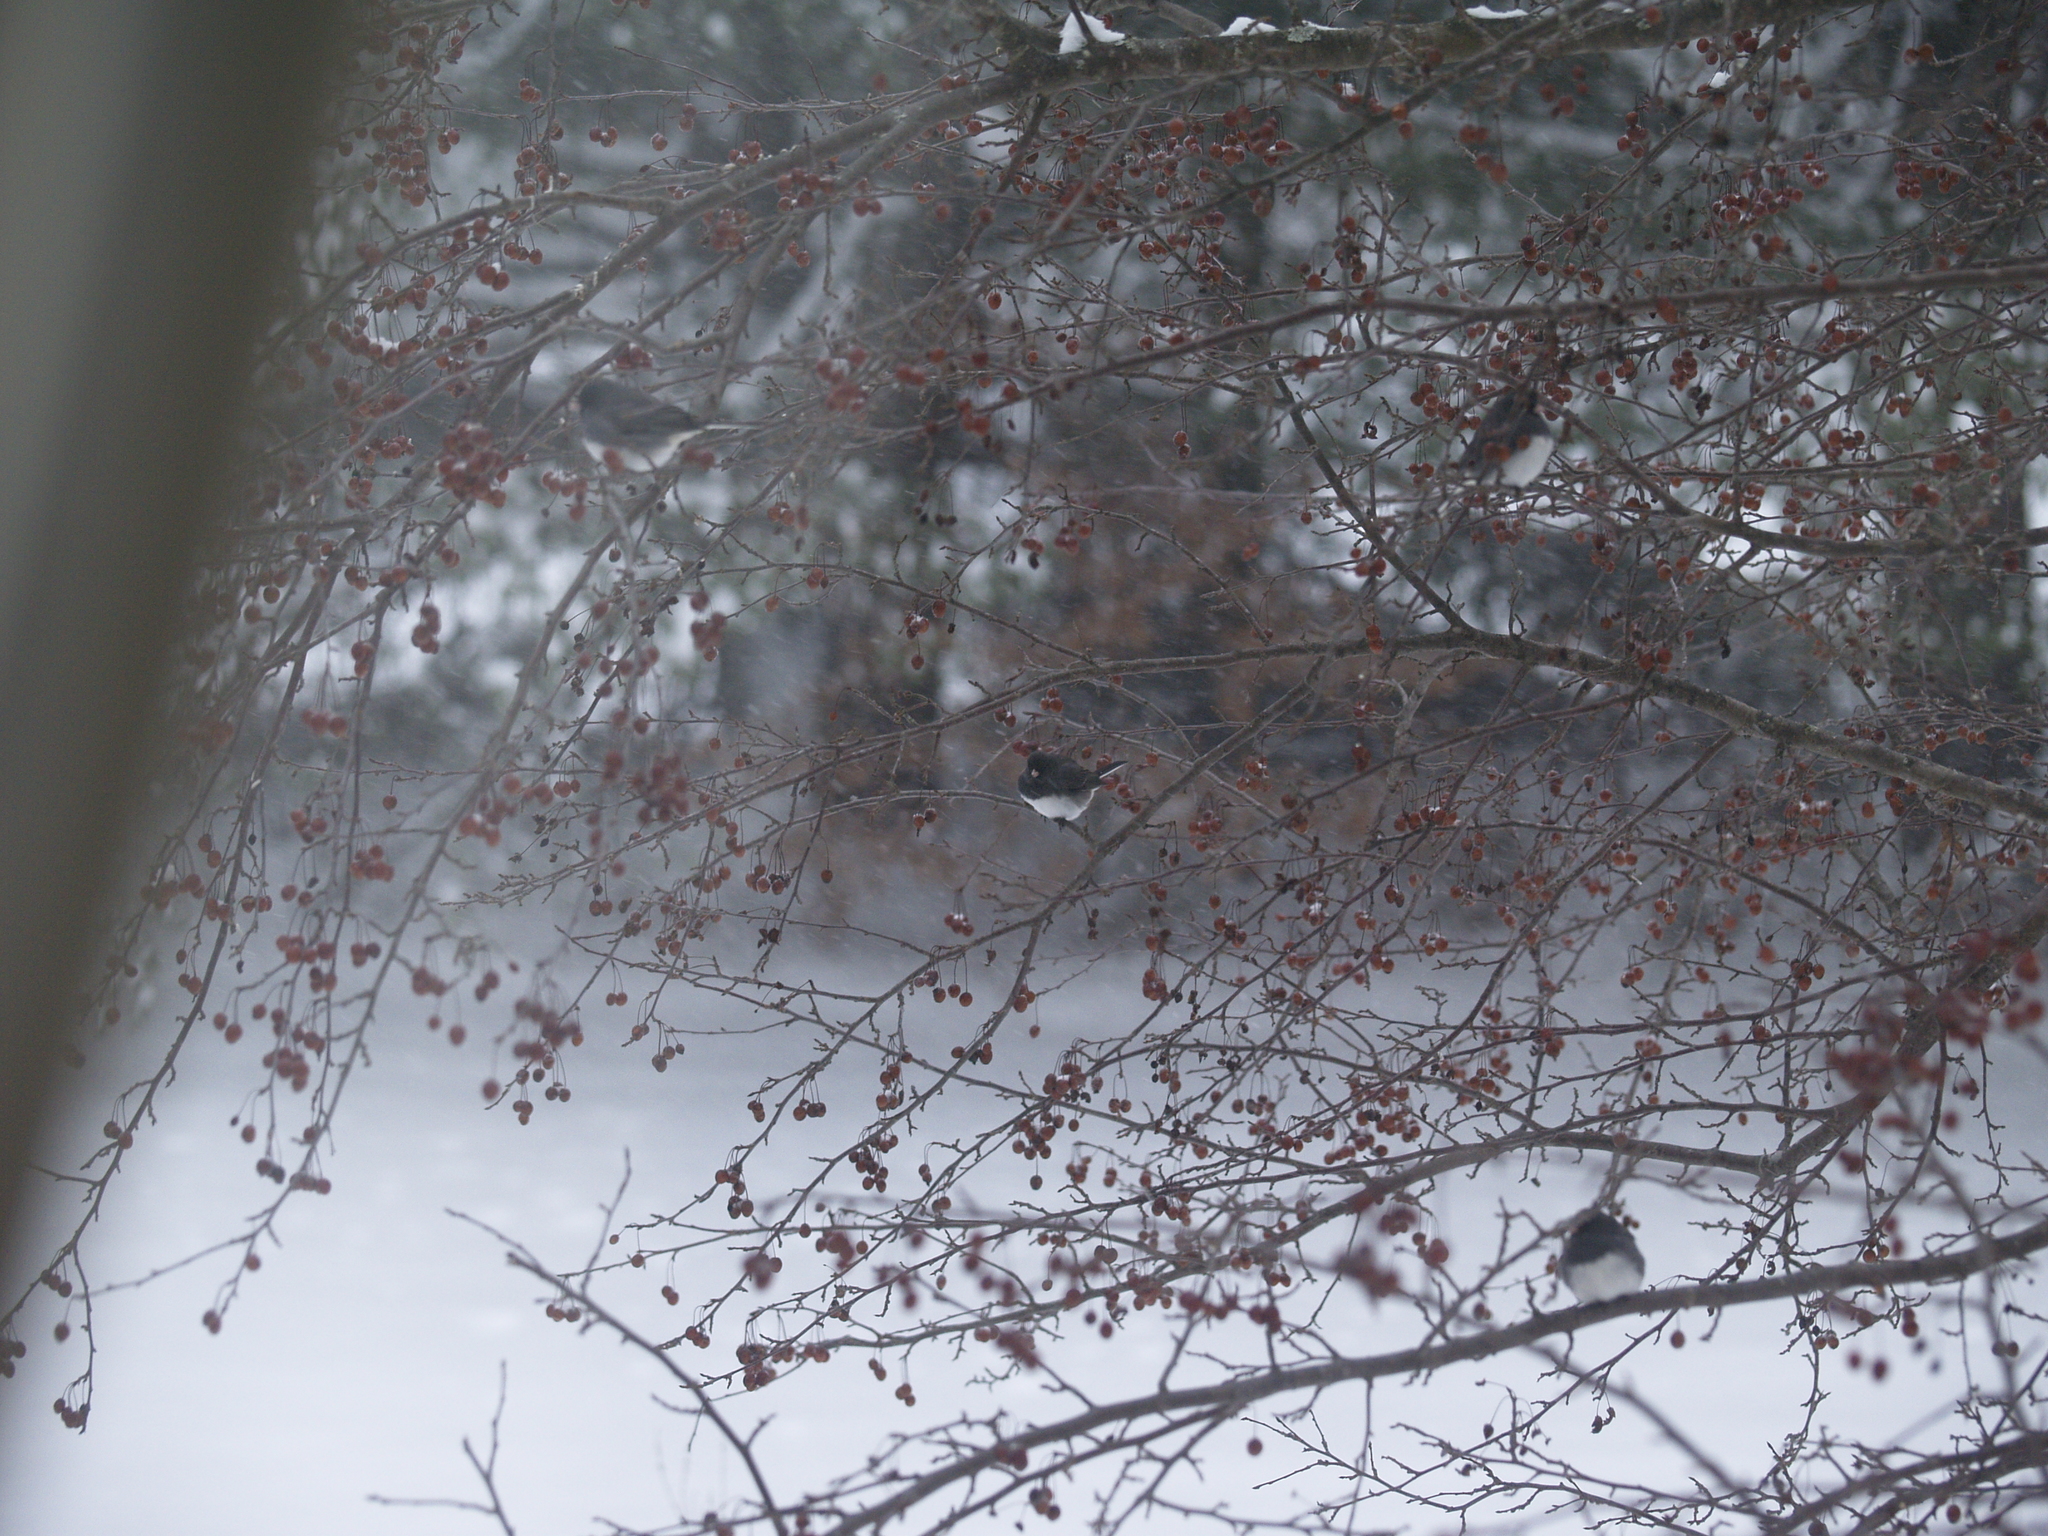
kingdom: Animalia
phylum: Chordata
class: Aves
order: Passeriformes
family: Passerellidae
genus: Junco
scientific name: Junco hyemalis
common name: Dark-eyed junco
